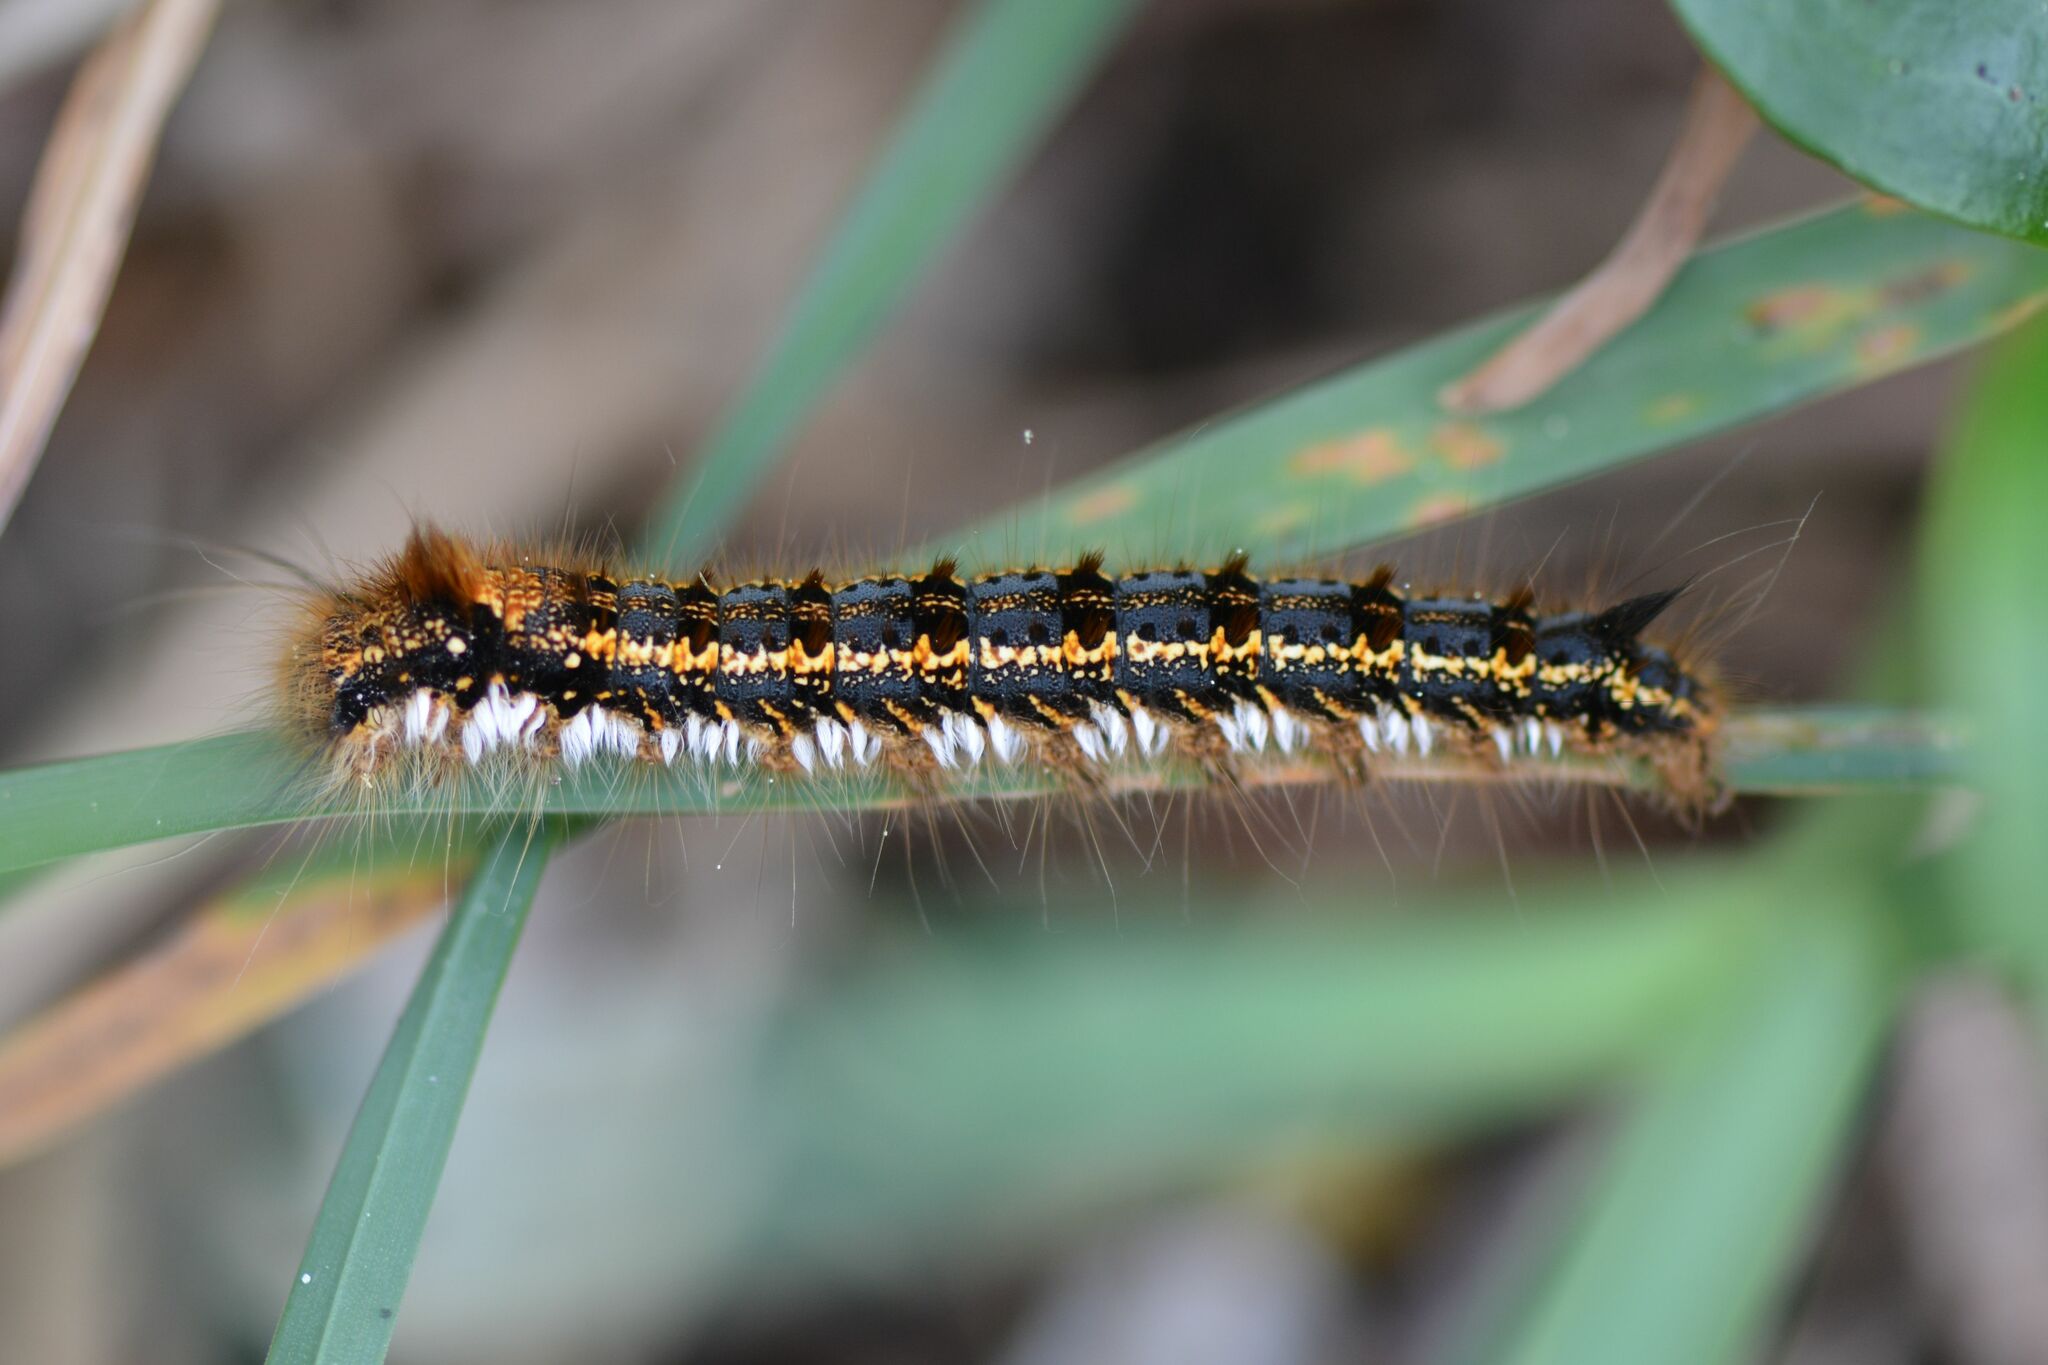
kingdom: Animalia
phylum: Arthropoda
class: Insecta
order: Lepidoptera
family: Lasiocampidae
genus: Euthrix
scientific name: Euthrix potatoria
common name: Drinker
